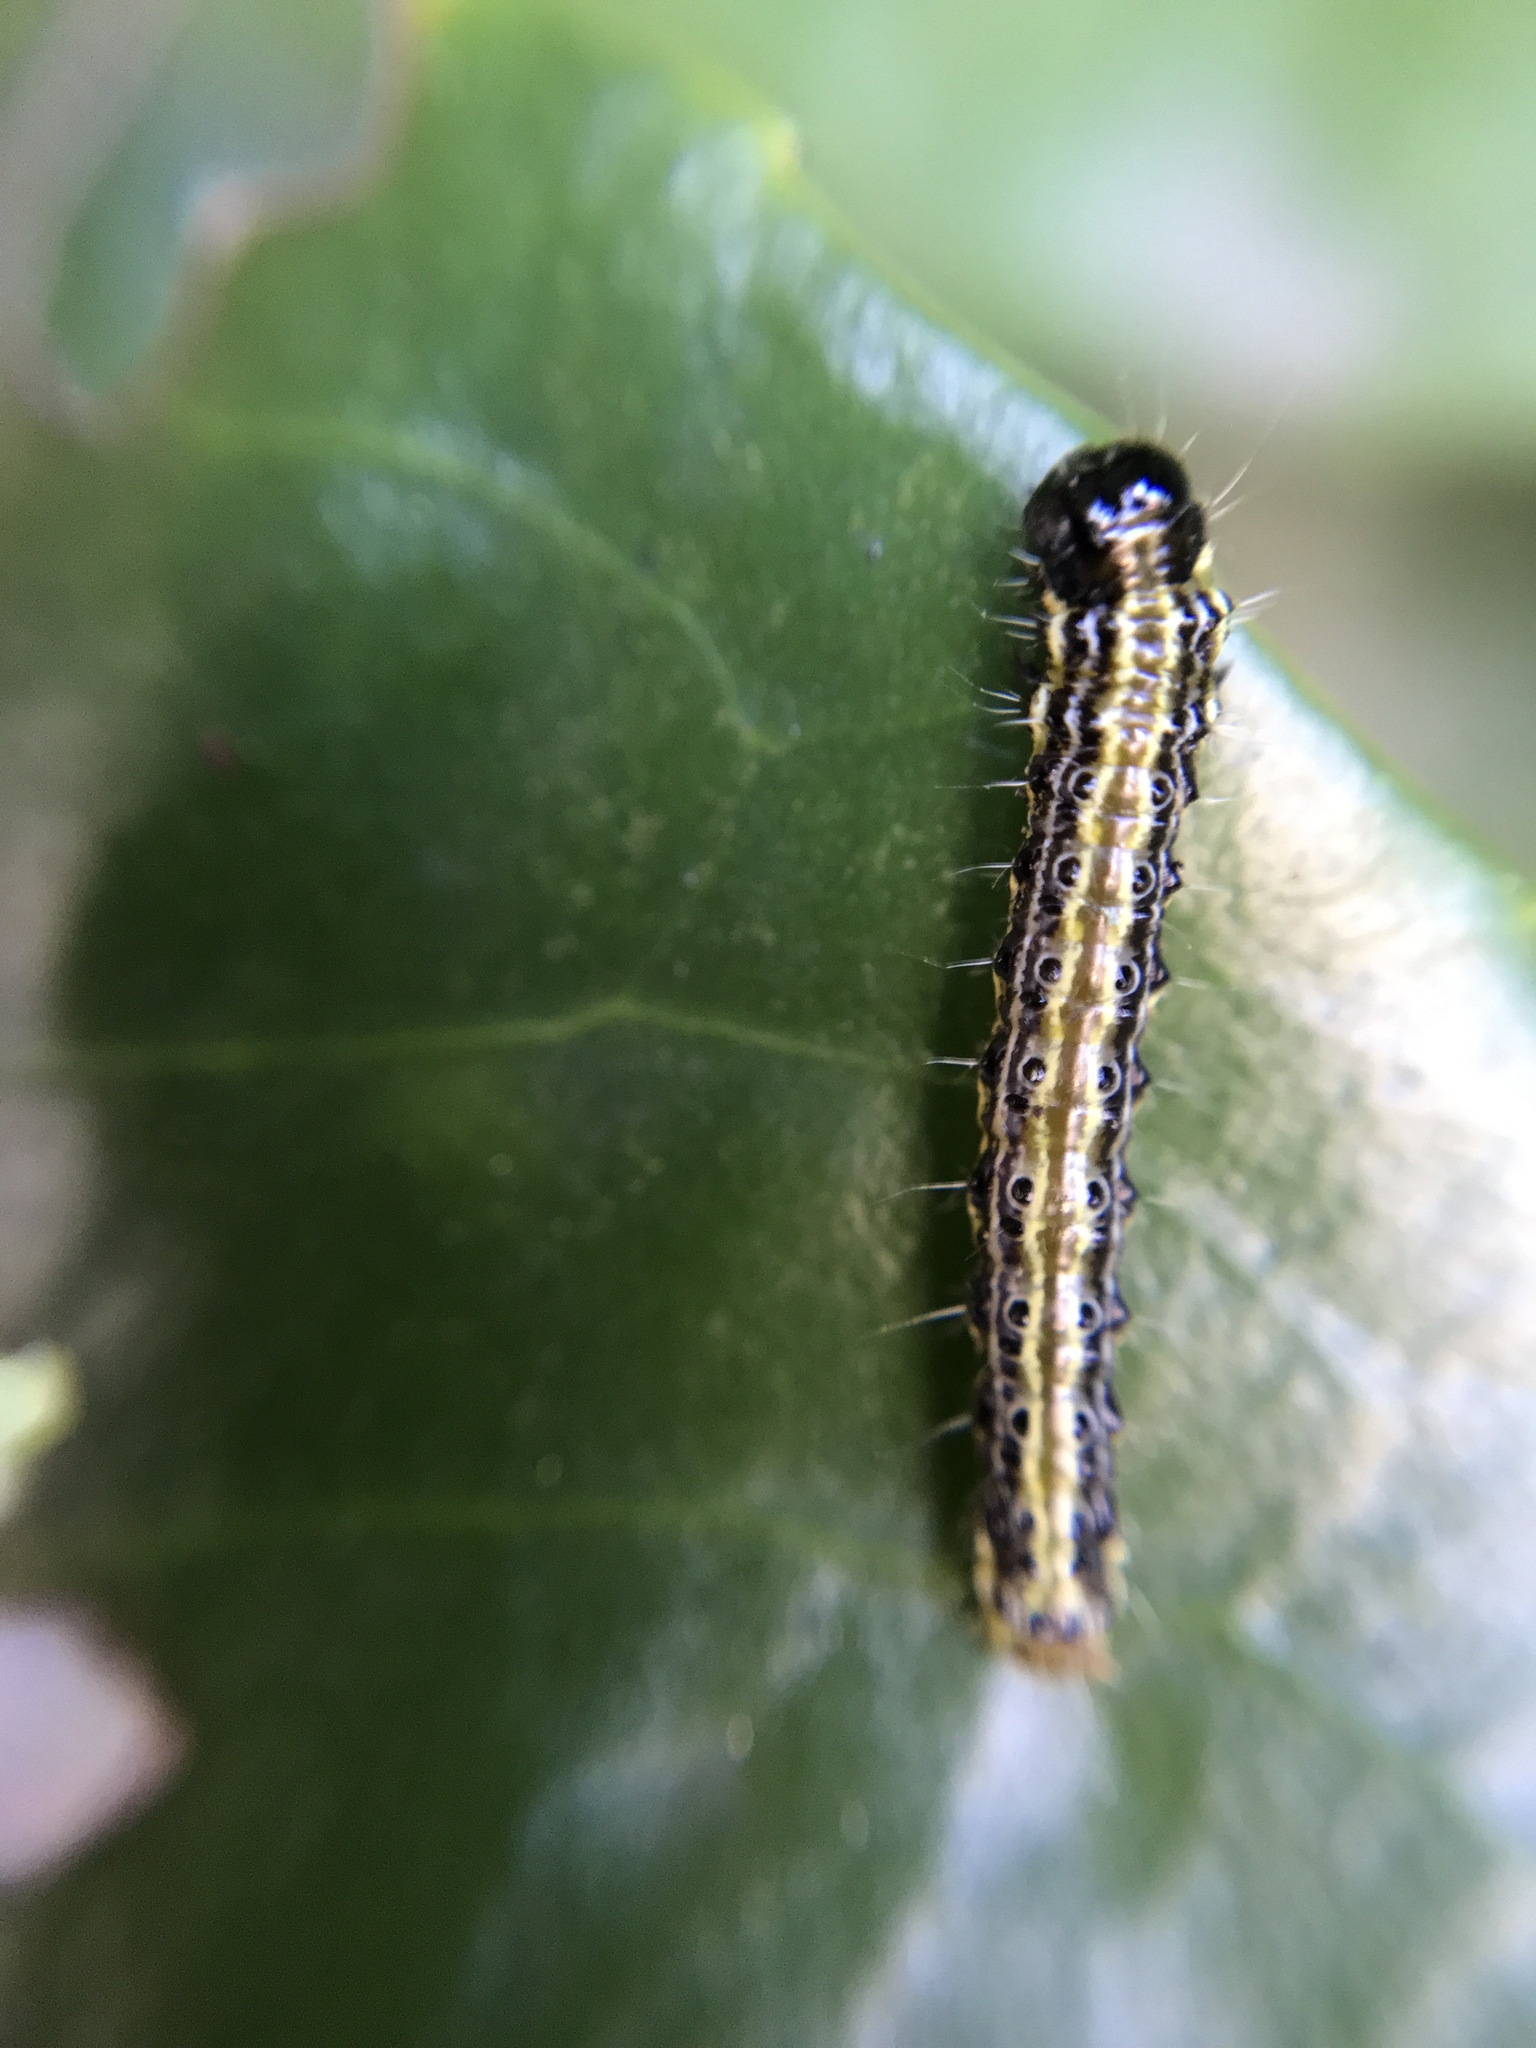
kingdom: Animalia
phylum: Arthropoda
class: Insecta
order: Lepidoptera
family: Crambidae
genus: Cydalima
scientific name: Cydalima perspectalis
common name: Box tree moth
